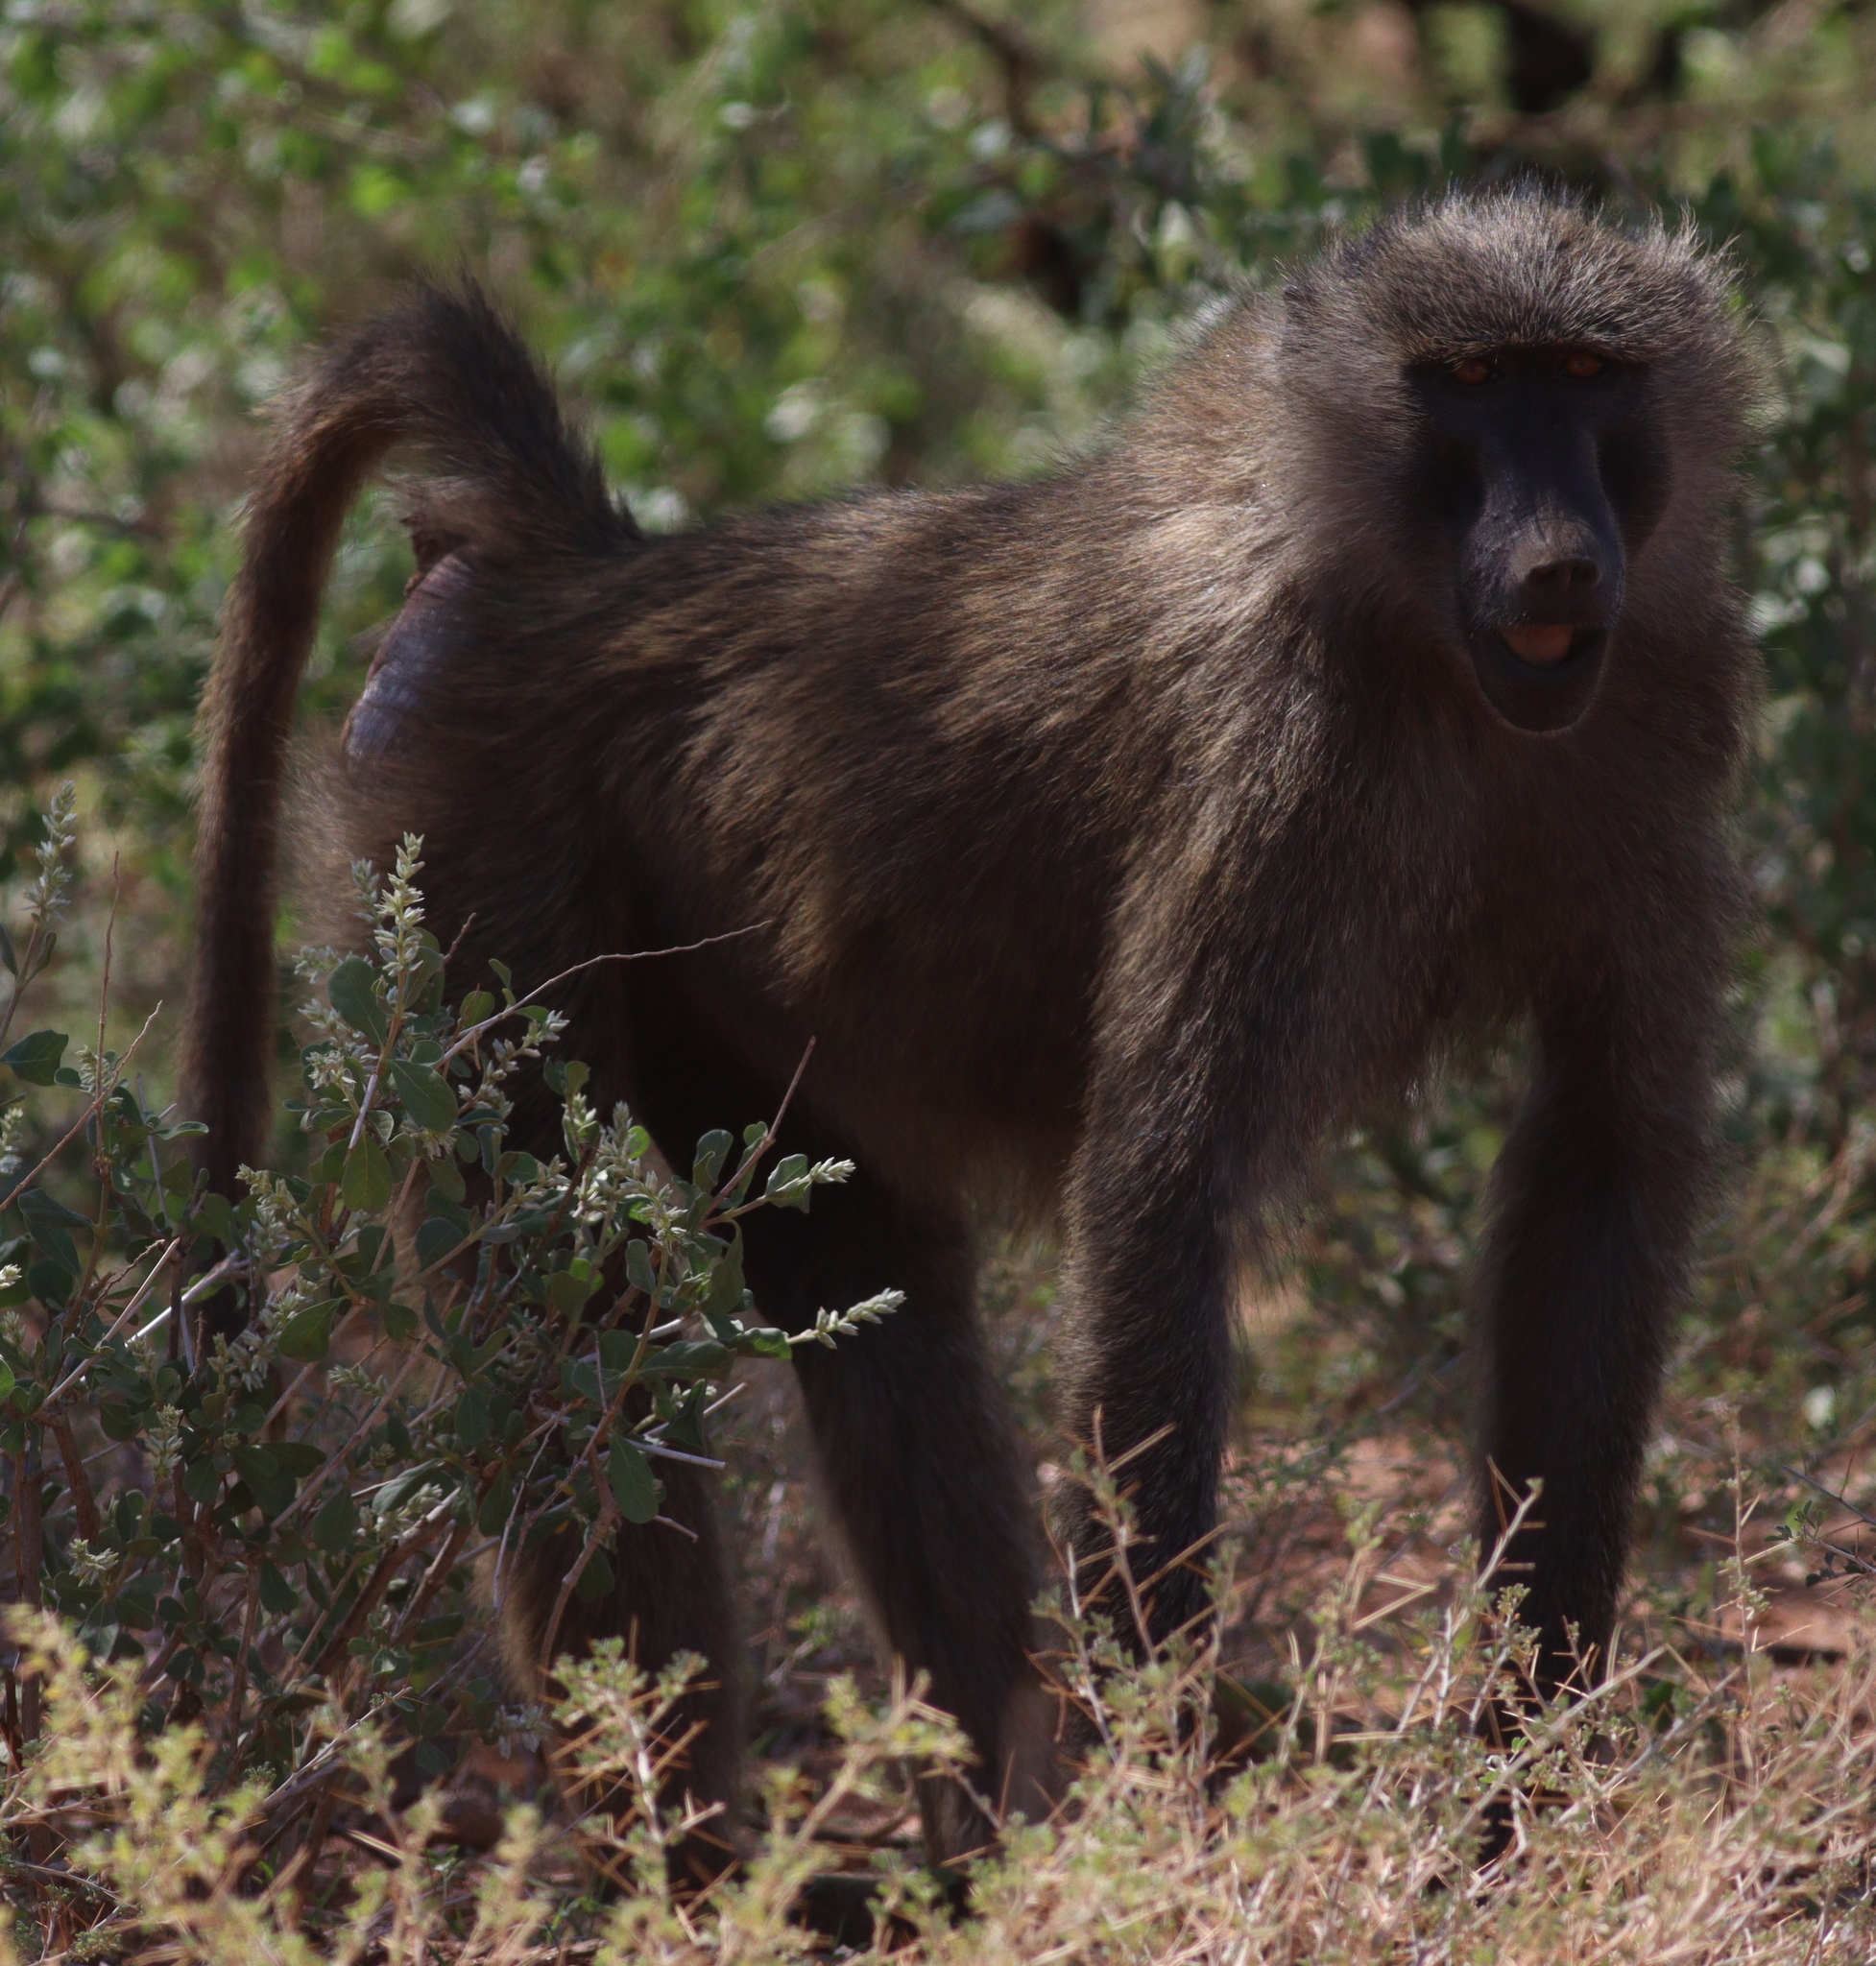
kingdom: Animalia
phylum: Chordata
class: Mammalia
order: Primates
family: Cercopithecidae
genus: Papio
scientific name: Papio anubis
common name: Olive baboon
